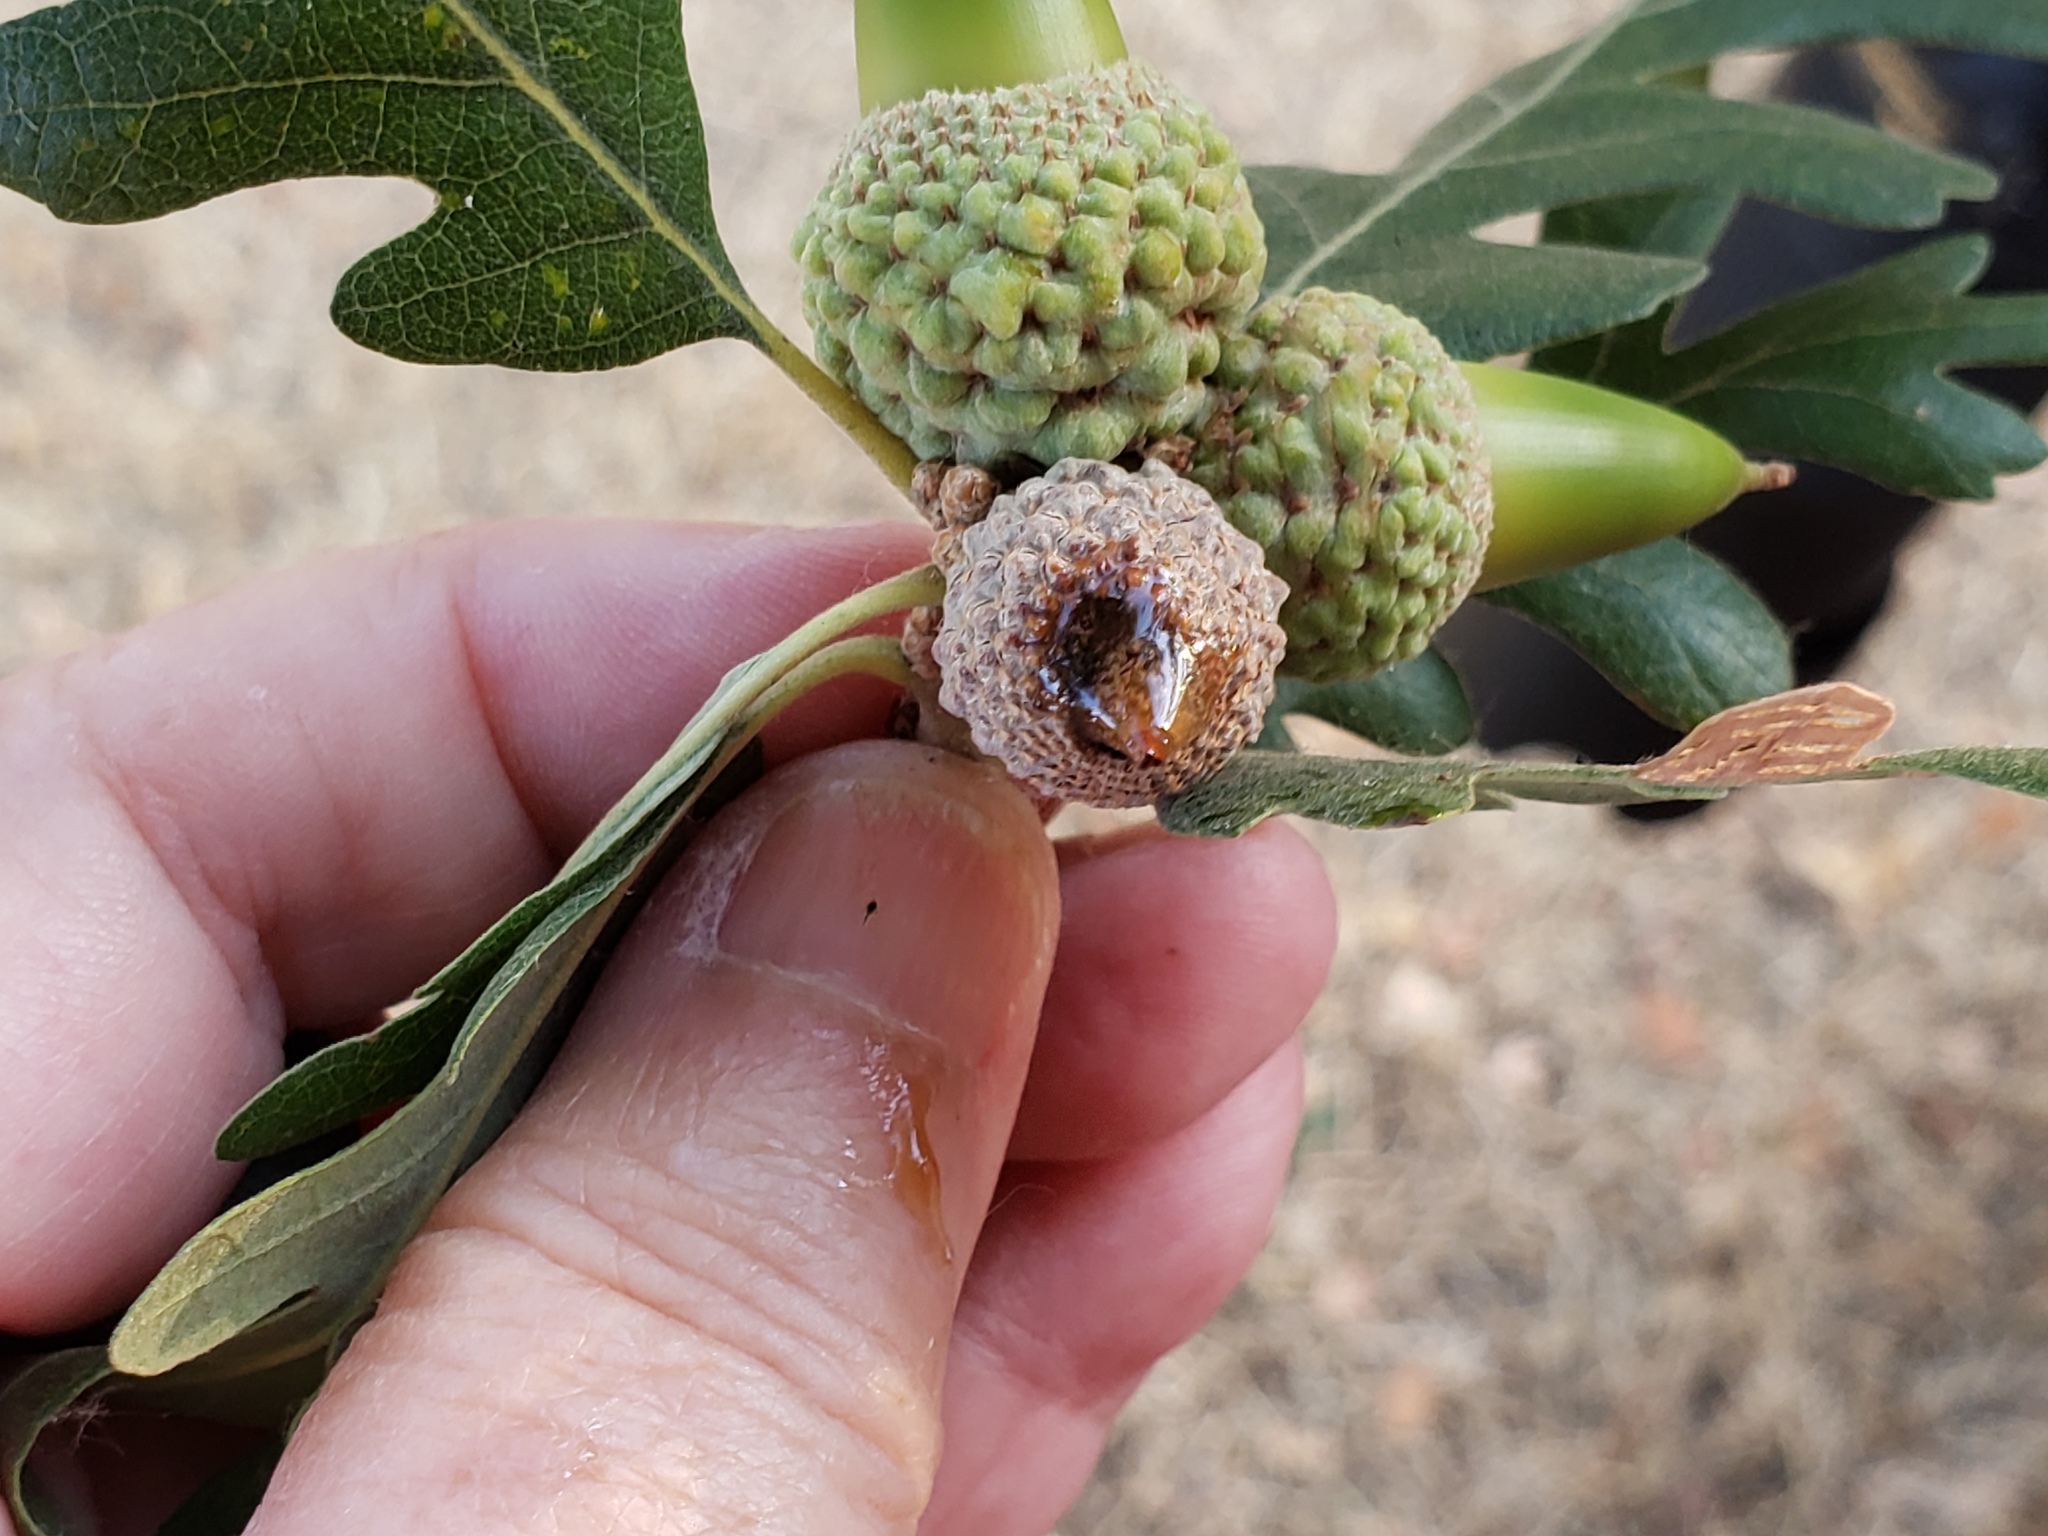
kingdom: Bacteria
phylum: Proteobacteria
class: Gammaproteobacteria
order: Enterobacterales
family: Enterobacteriaceae
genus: Lonsdalea
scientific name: Lonsdalea quercina
